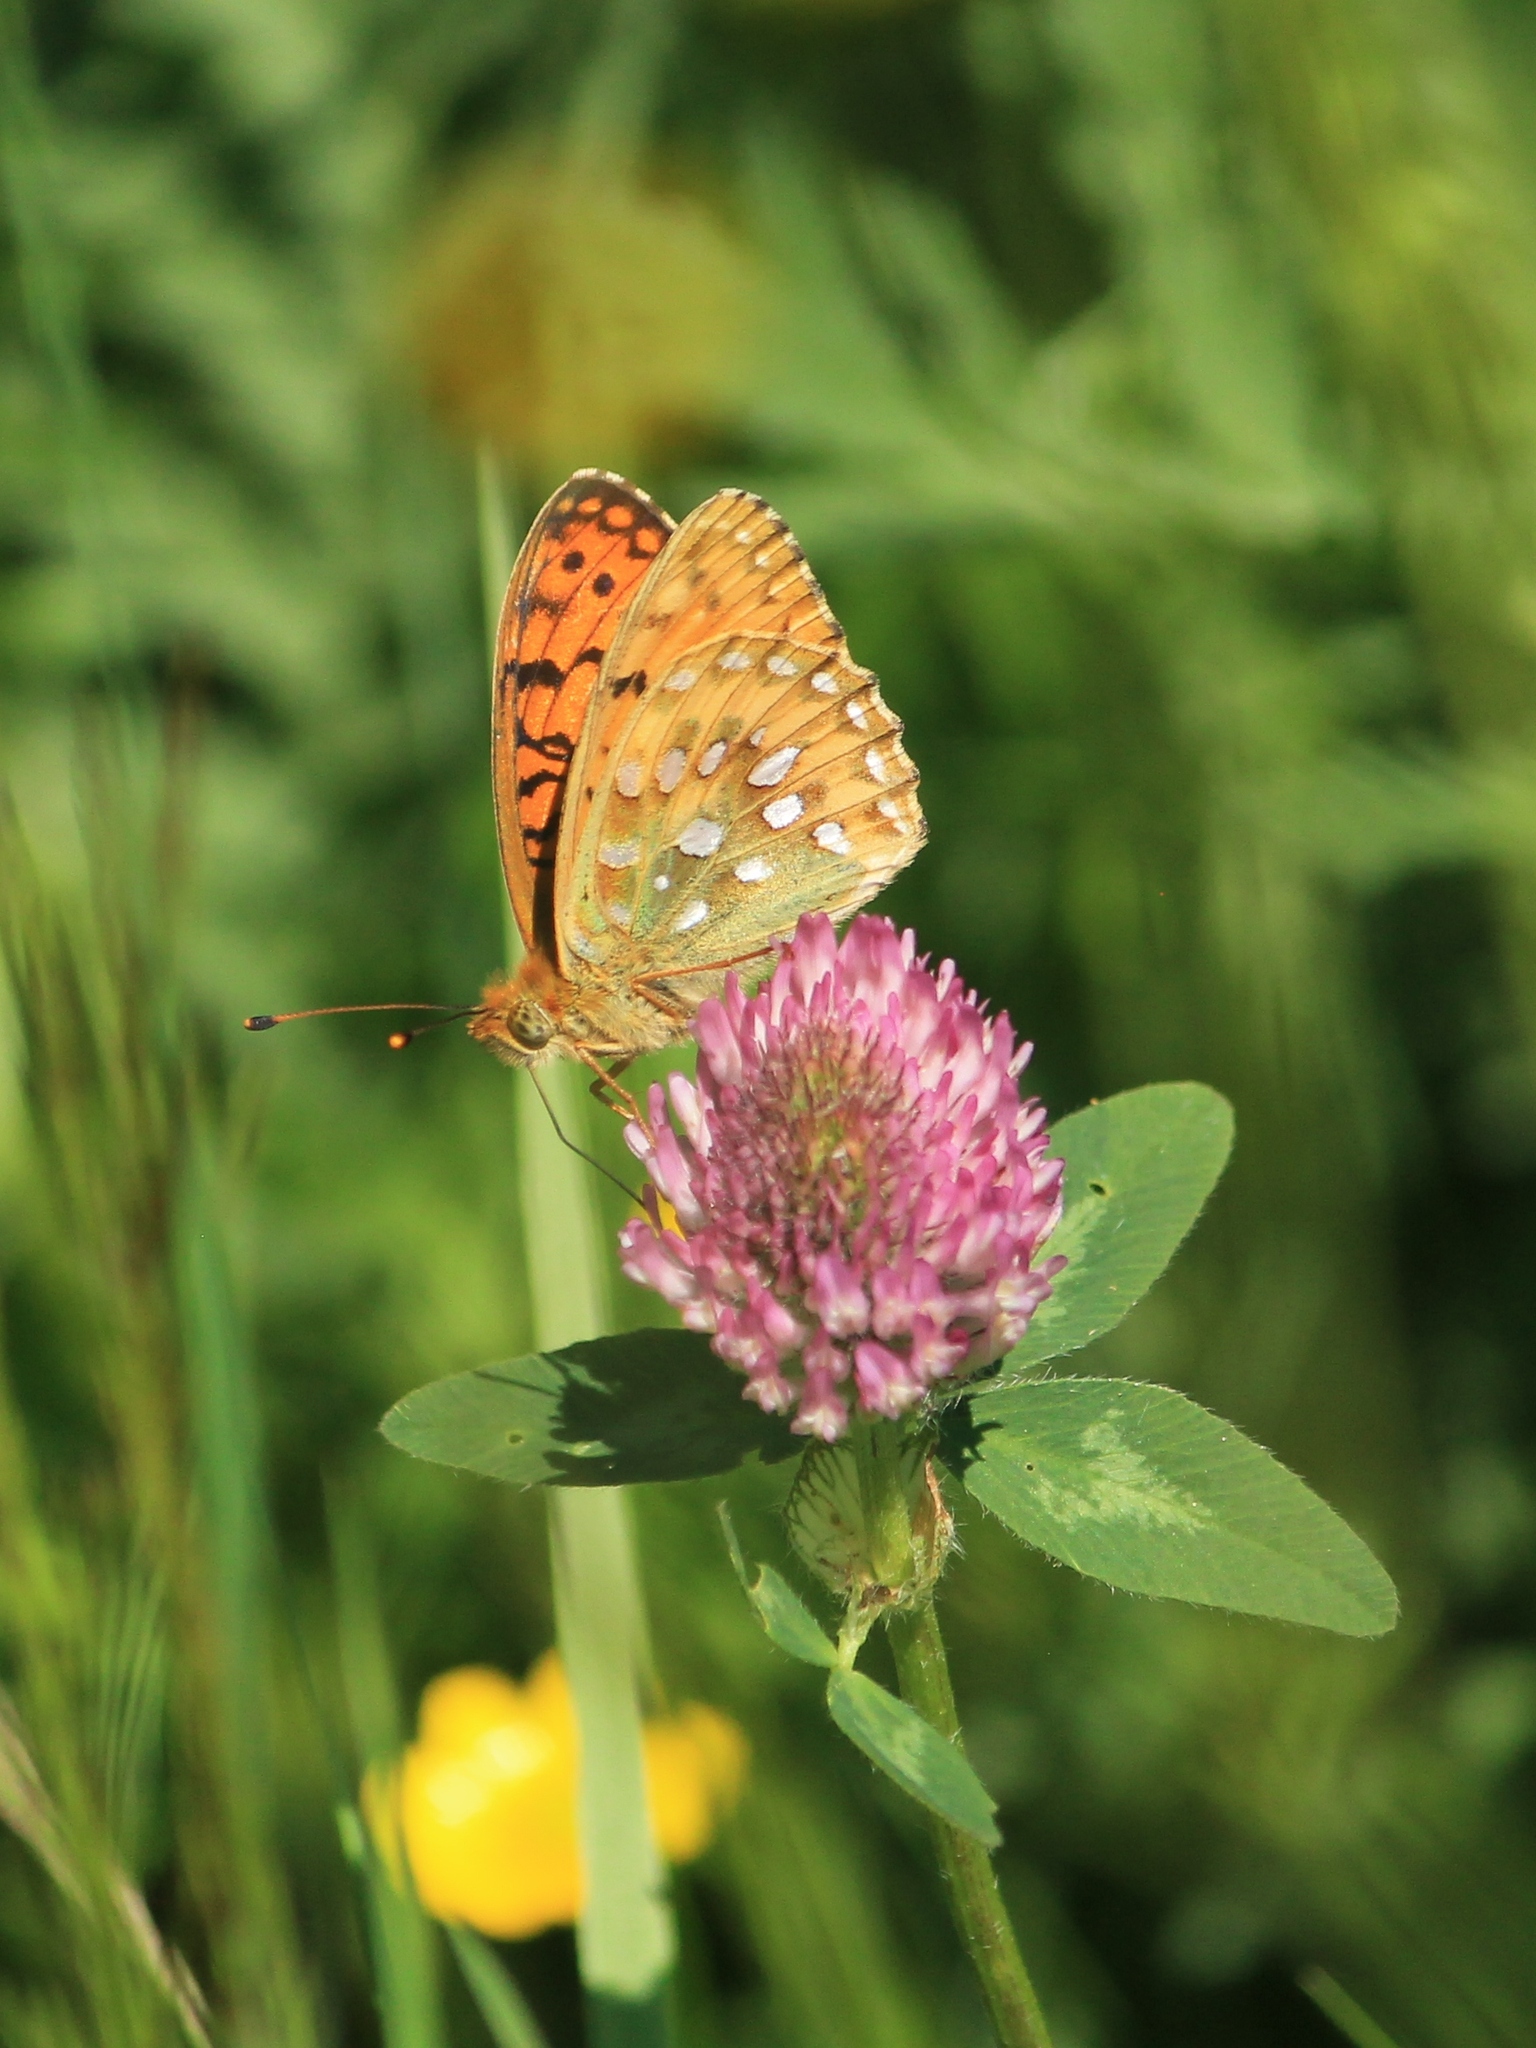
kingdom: Animalia
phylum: Arthropoda
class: Insecta
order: Lepidoptera
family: Nymphalidae
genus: Speyeria
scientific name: Speyeria aglaja
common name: Dark green fritillary
